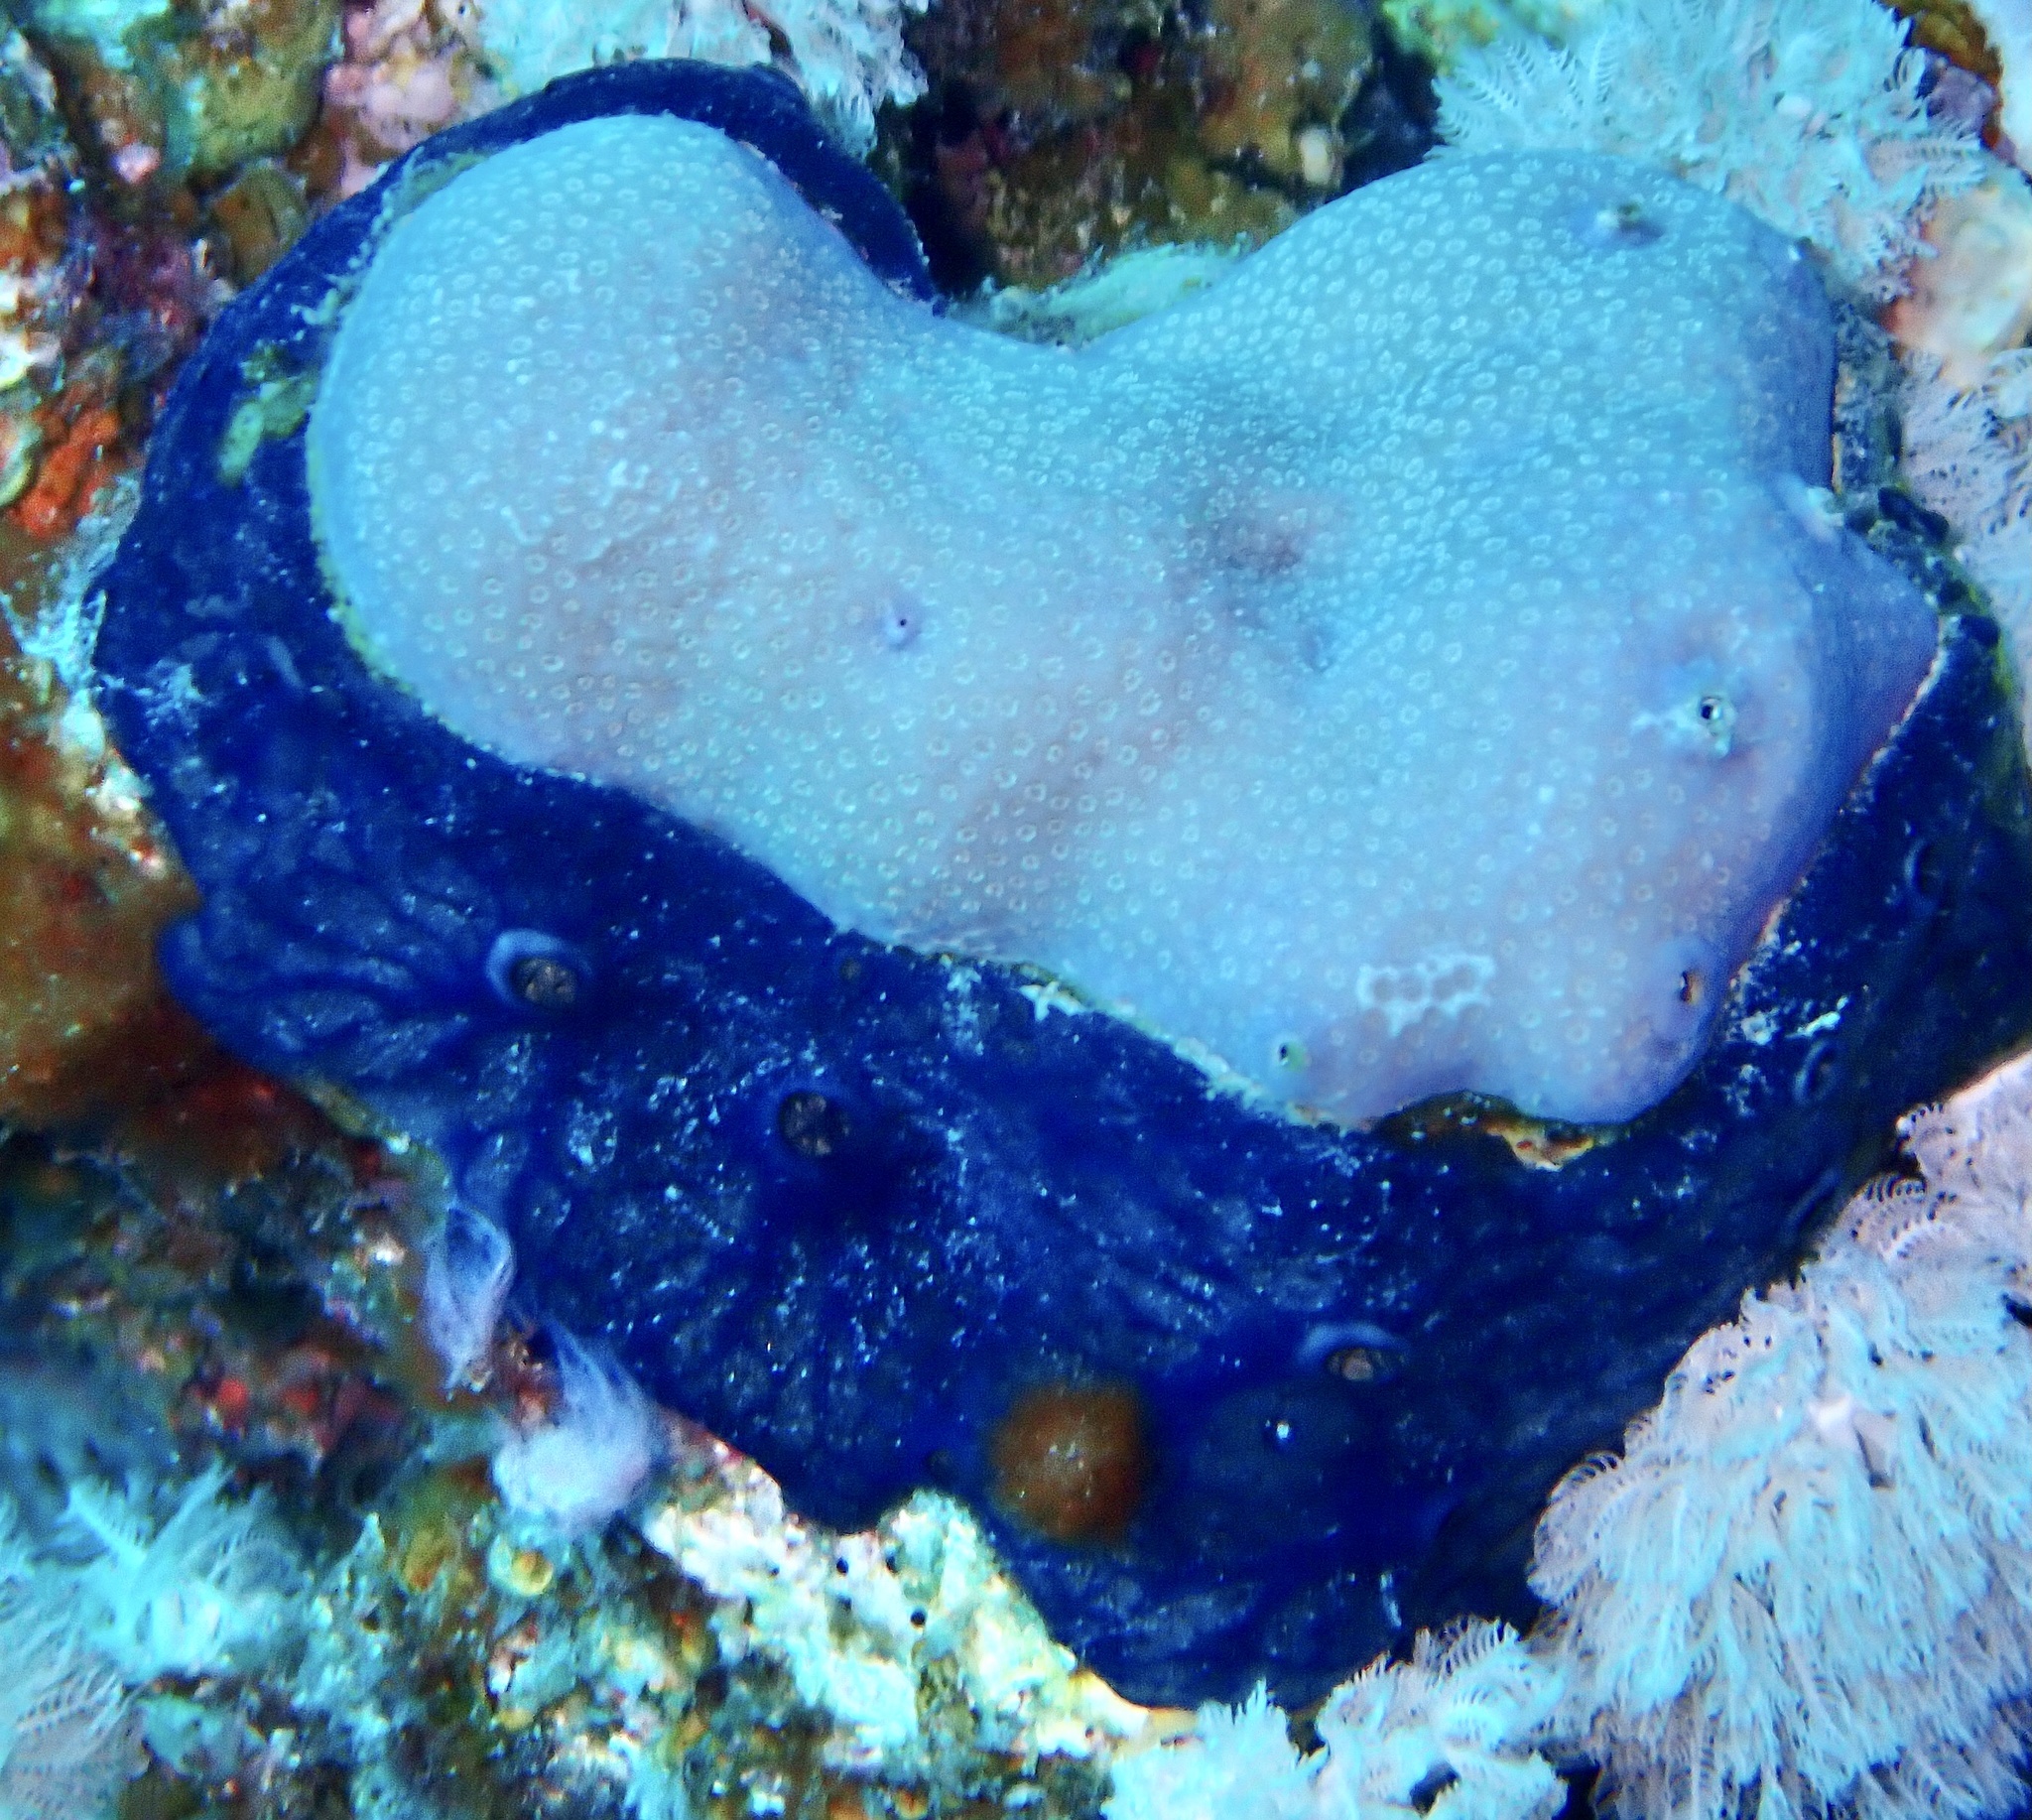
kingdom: Animalia
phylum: Porifera
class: Demospongiae
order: Poecilosclerida
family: Hymedesmiidae
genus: Hemimycale
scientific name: Hemimycale arabica
